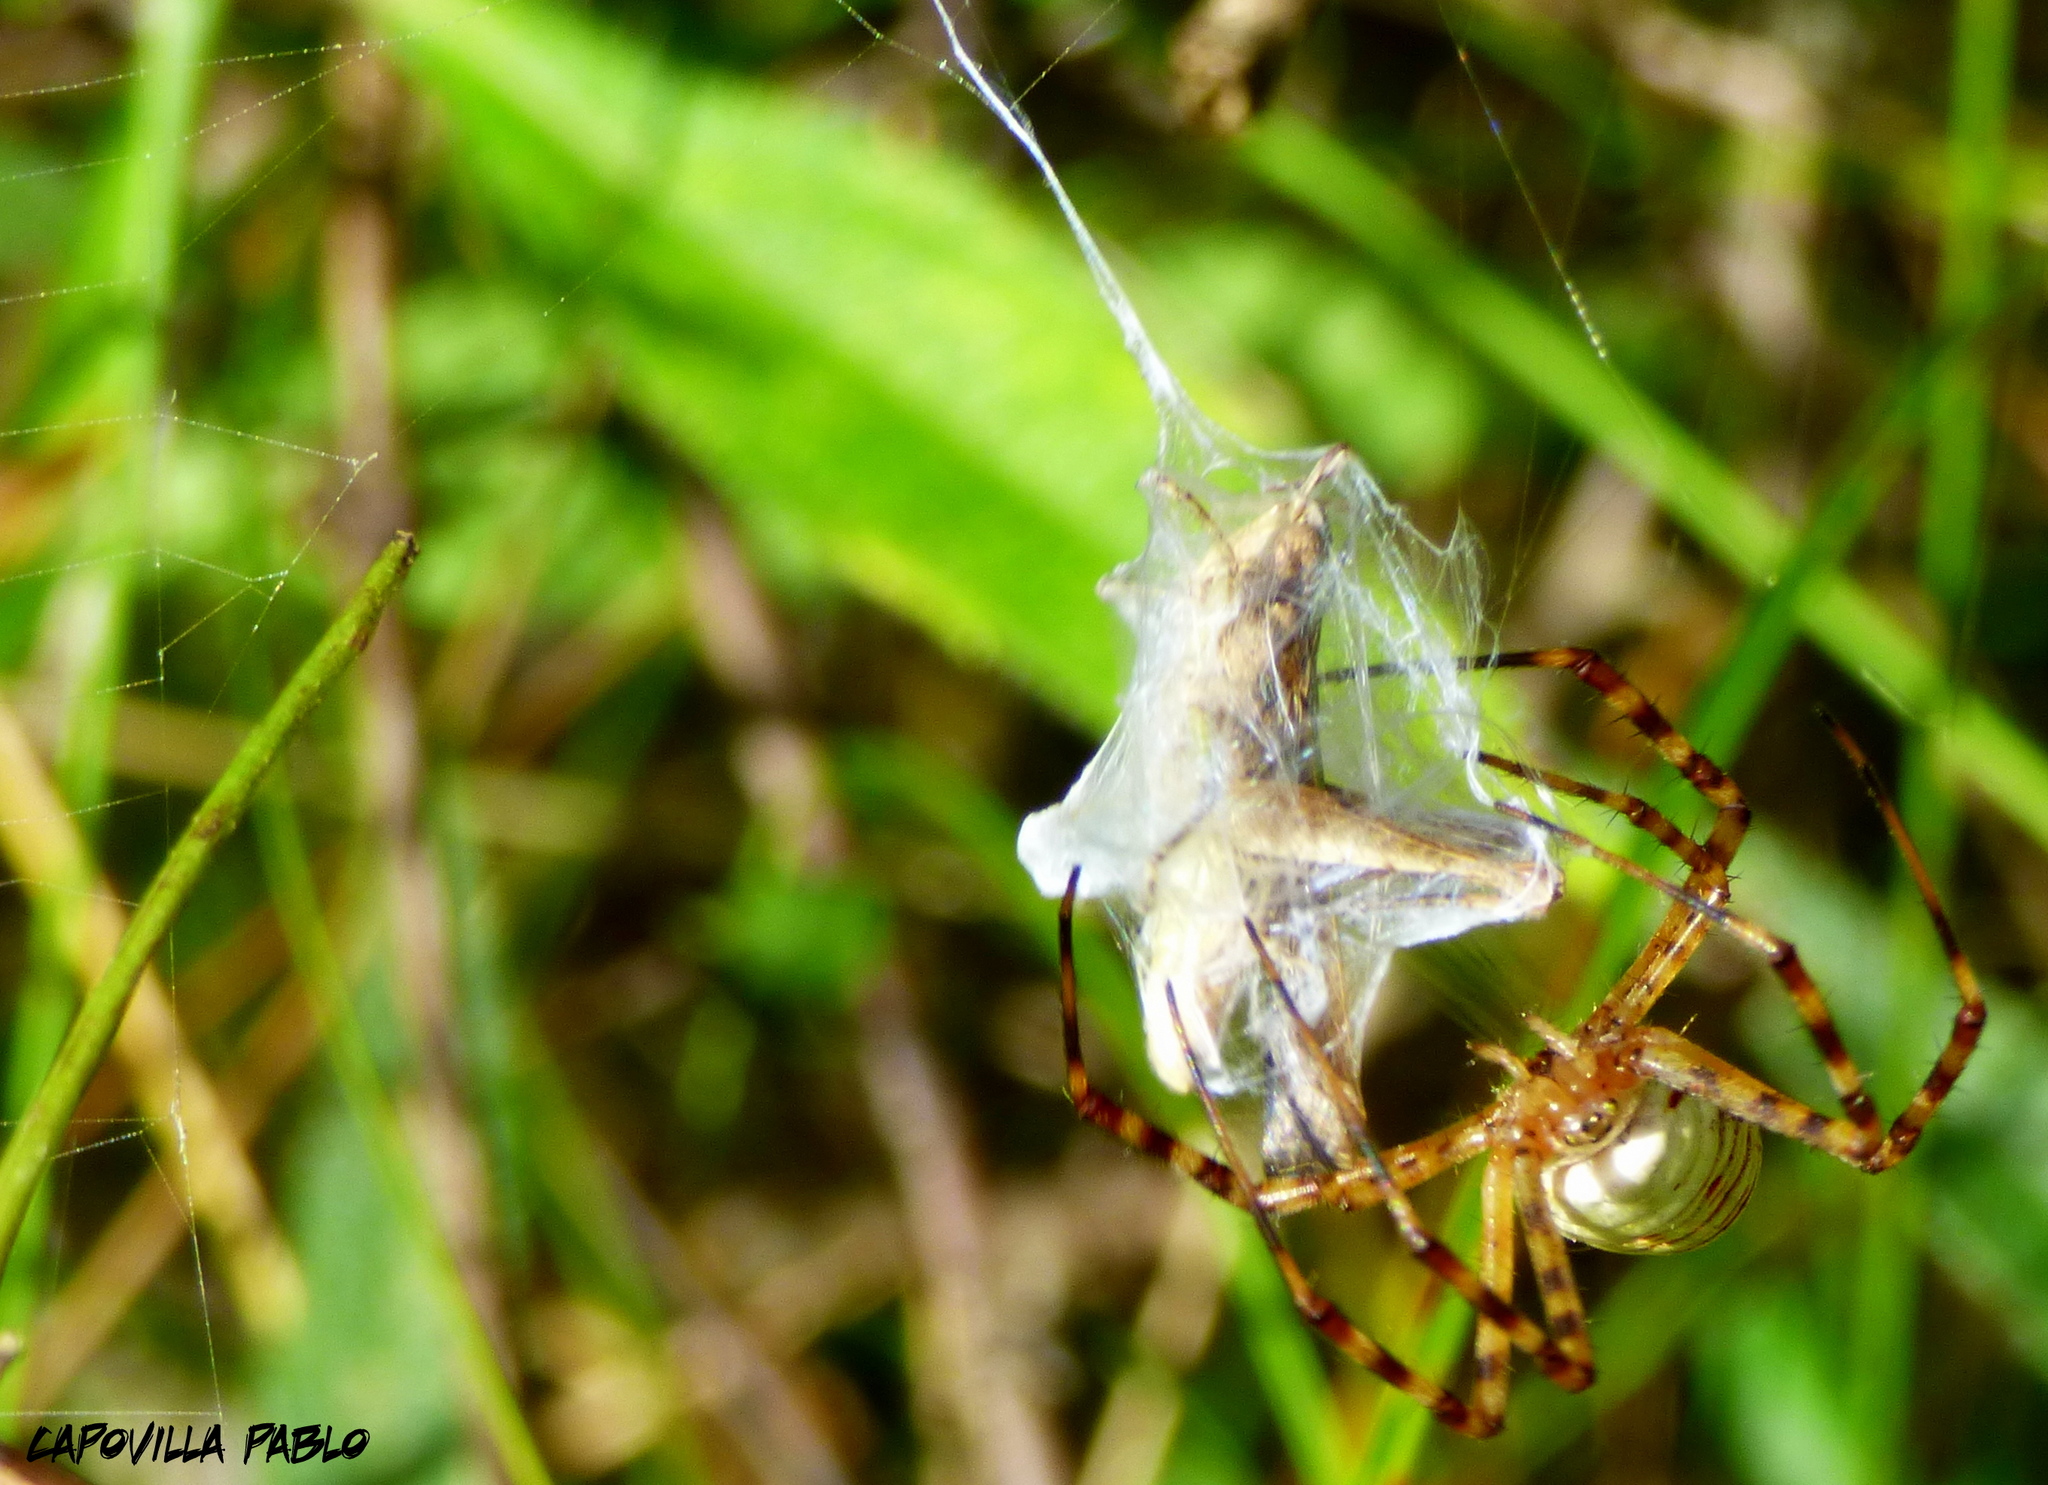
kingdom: Animalia
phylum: Arthropoda
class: Arachnida
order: Araneae
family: Araneidae
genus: Argiope
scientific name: Argiope trifasciata
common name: Banded garden spider
